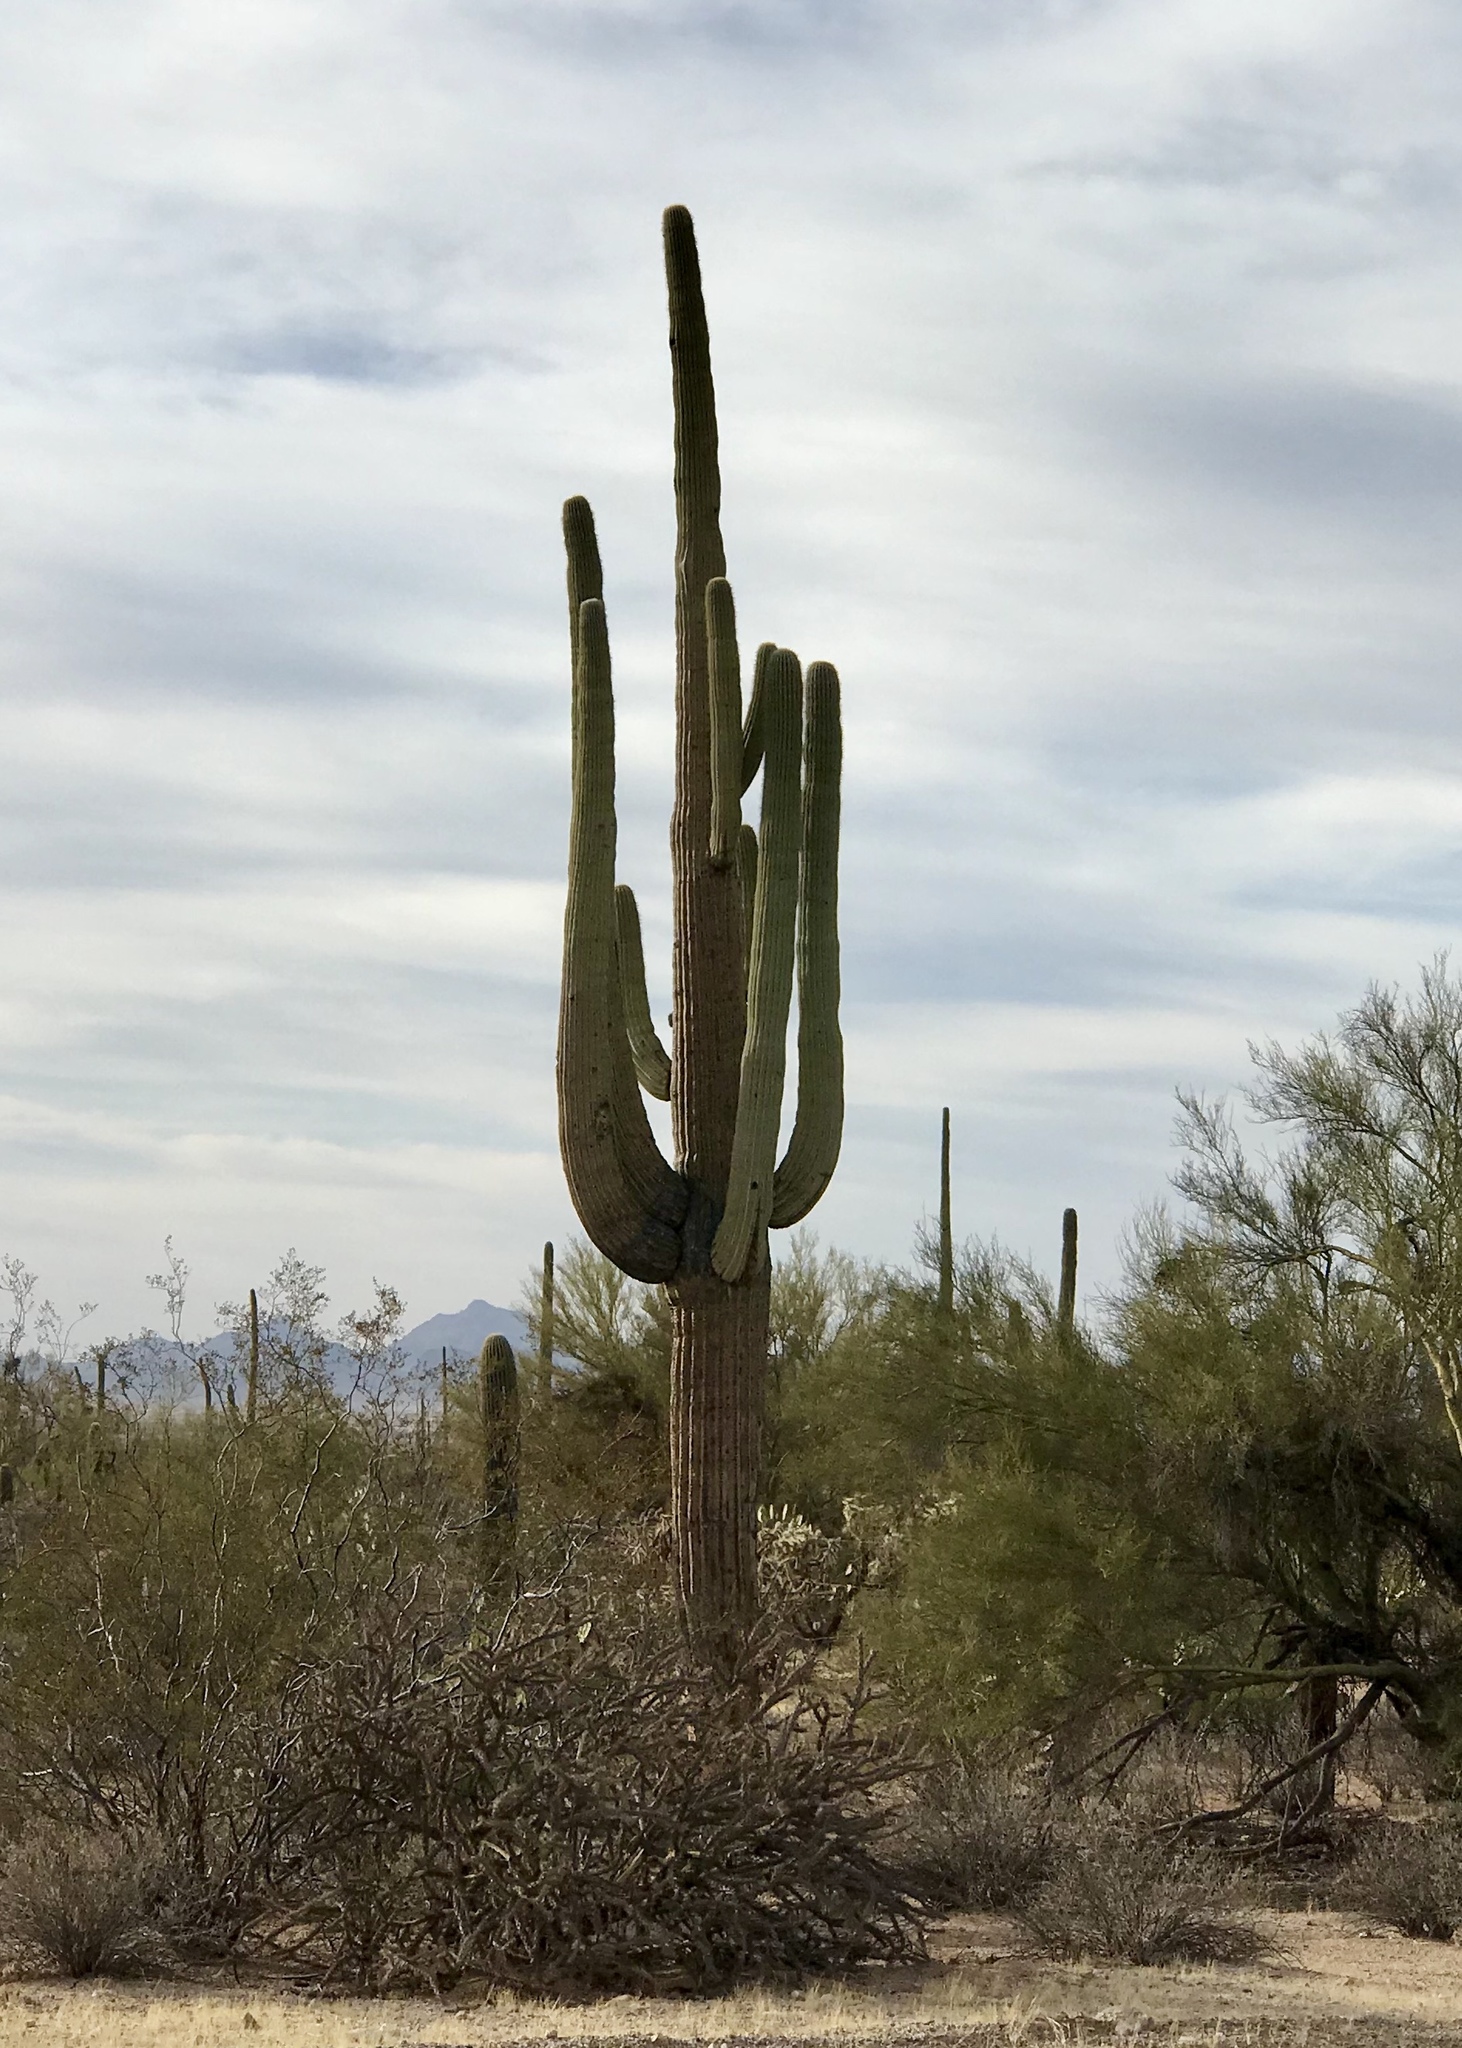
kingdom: Plantae
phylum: Tracheophyta
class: Magnoliopsida
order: Caryophyllales
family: Cactaceae
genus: Carnegiea
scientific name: Carnegiea gigantea
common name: Saguaro
